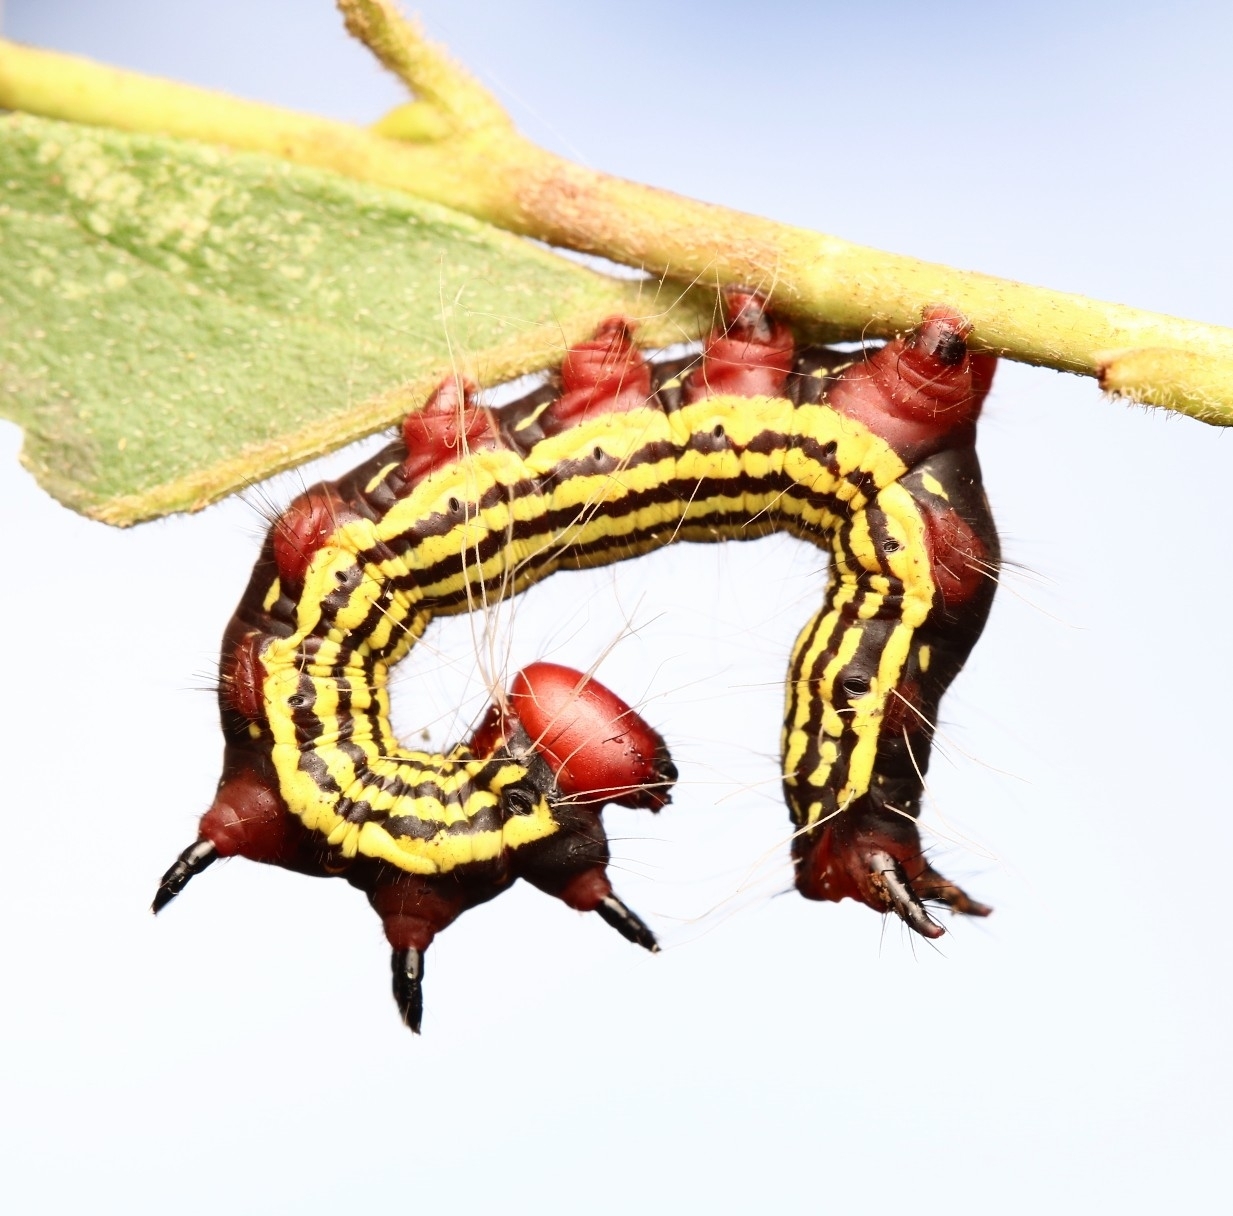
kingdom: Animalia
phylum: Arthropoda
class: Insecta
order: Lepidoptera
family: Notodontidae
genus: Datana
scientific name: Datana major
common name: Azalea caterpillar
